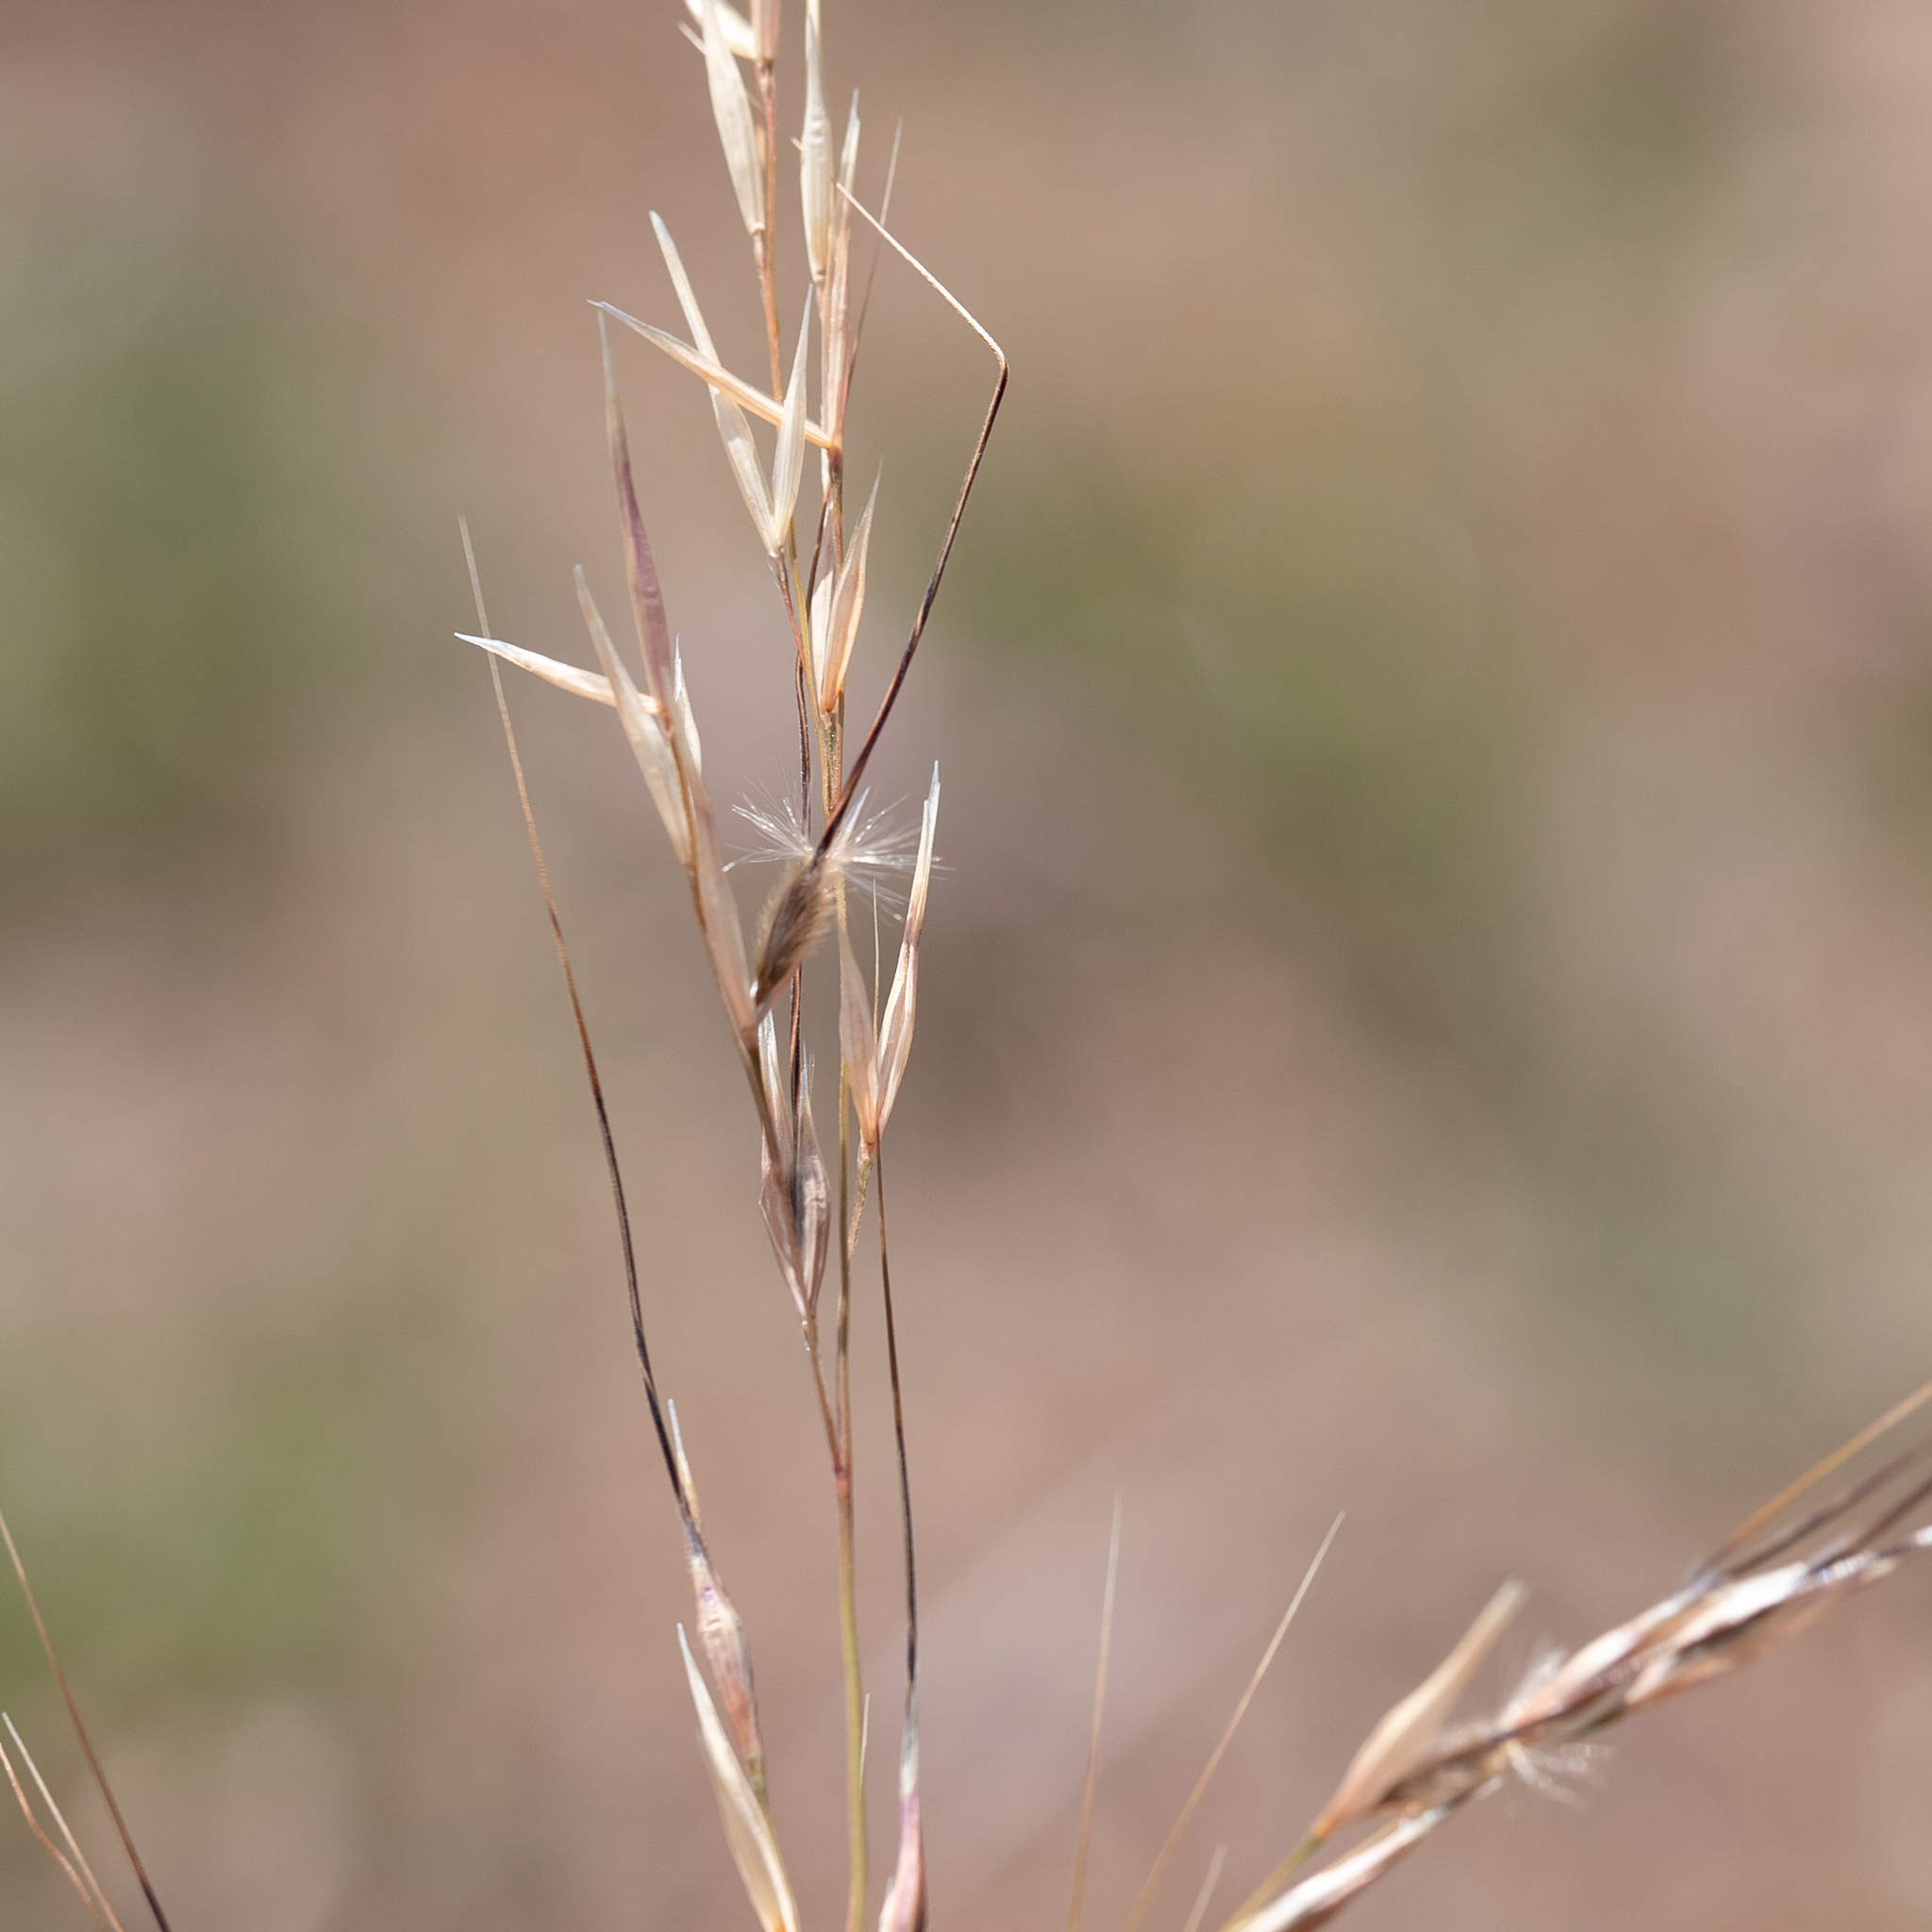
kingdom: Plantae
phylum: Tracheophyta
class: Liliopsida
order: Poales
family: Poaceae
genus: Austrostipa
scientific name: Austrostipa blackii
